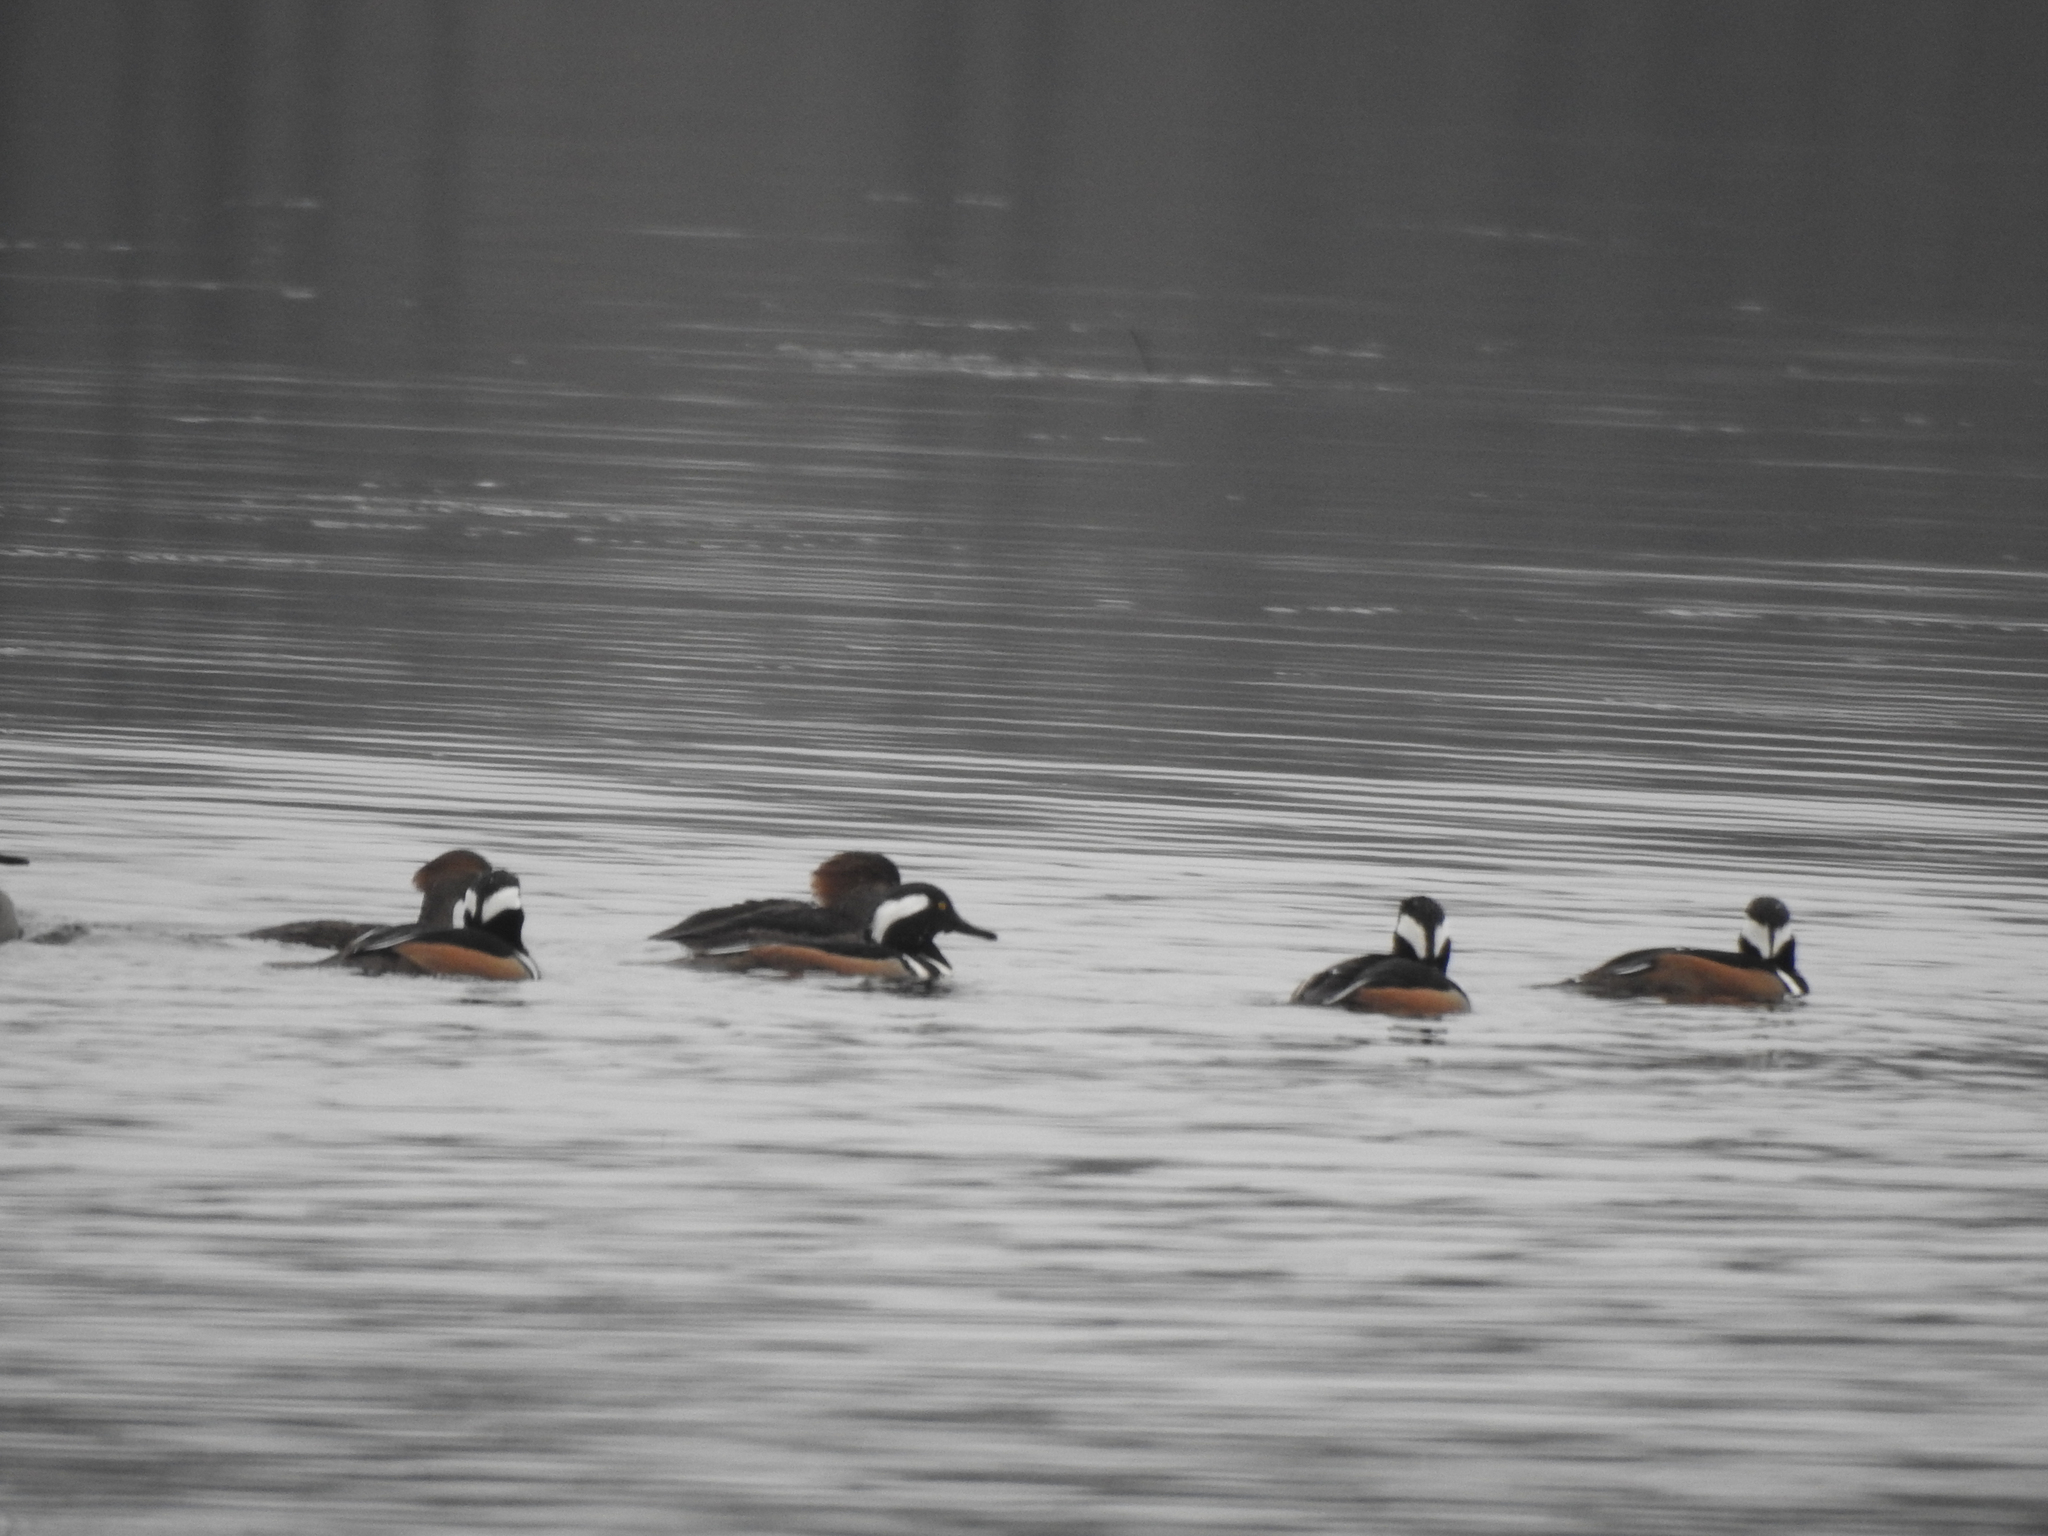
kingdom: Animalia
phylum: Chordata
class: Aves
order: Anseriformes
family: Anatidae
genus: Lophodytes
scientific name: Lophodytes cucullatus
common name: Hooded merganser
